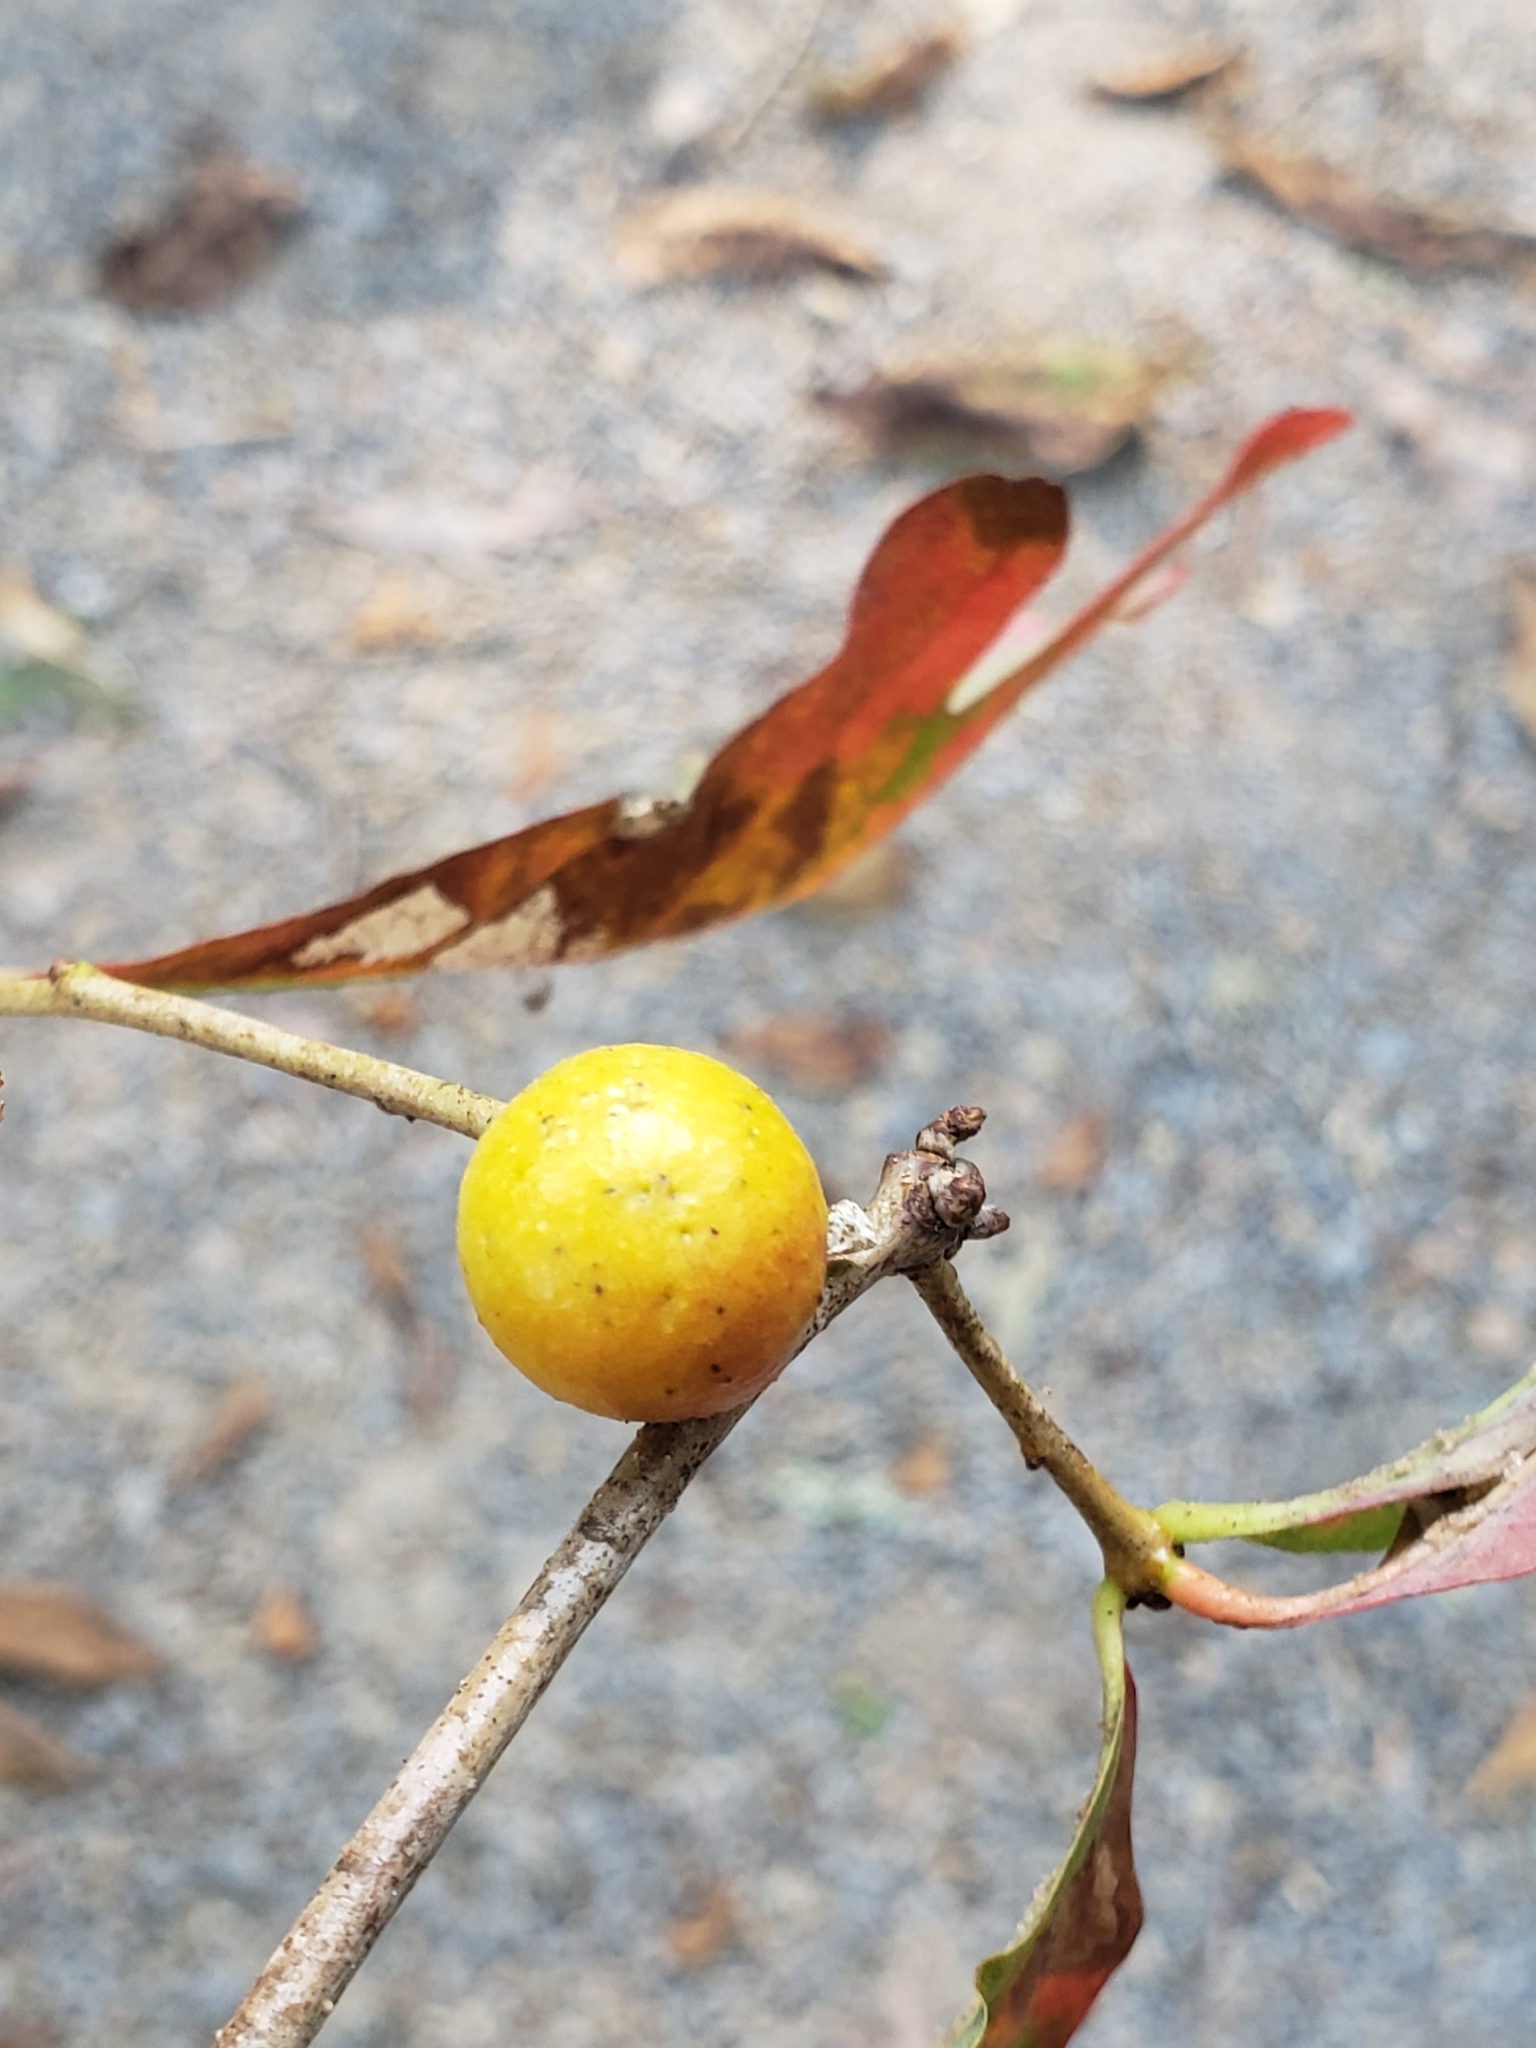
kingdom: Animalia
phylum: Arthropoda
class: Insecta
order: Hymenoptera
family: Cynipidae
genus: Disholcaspis
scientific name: Disholcaspis quercusglobulus
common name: Round bullet gall wasp
